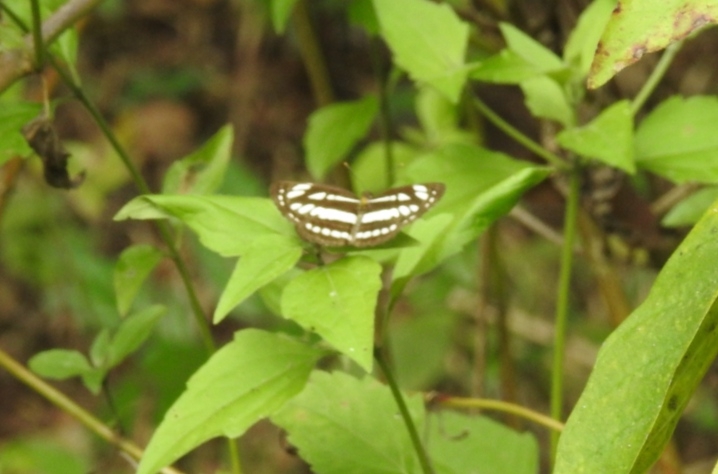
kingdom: Animalia
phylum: Arthropoda
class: Insecta
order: Lepidoptera
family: Nymphalidae
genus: Neptis
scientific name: Neptis hylas
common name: Common sailer
